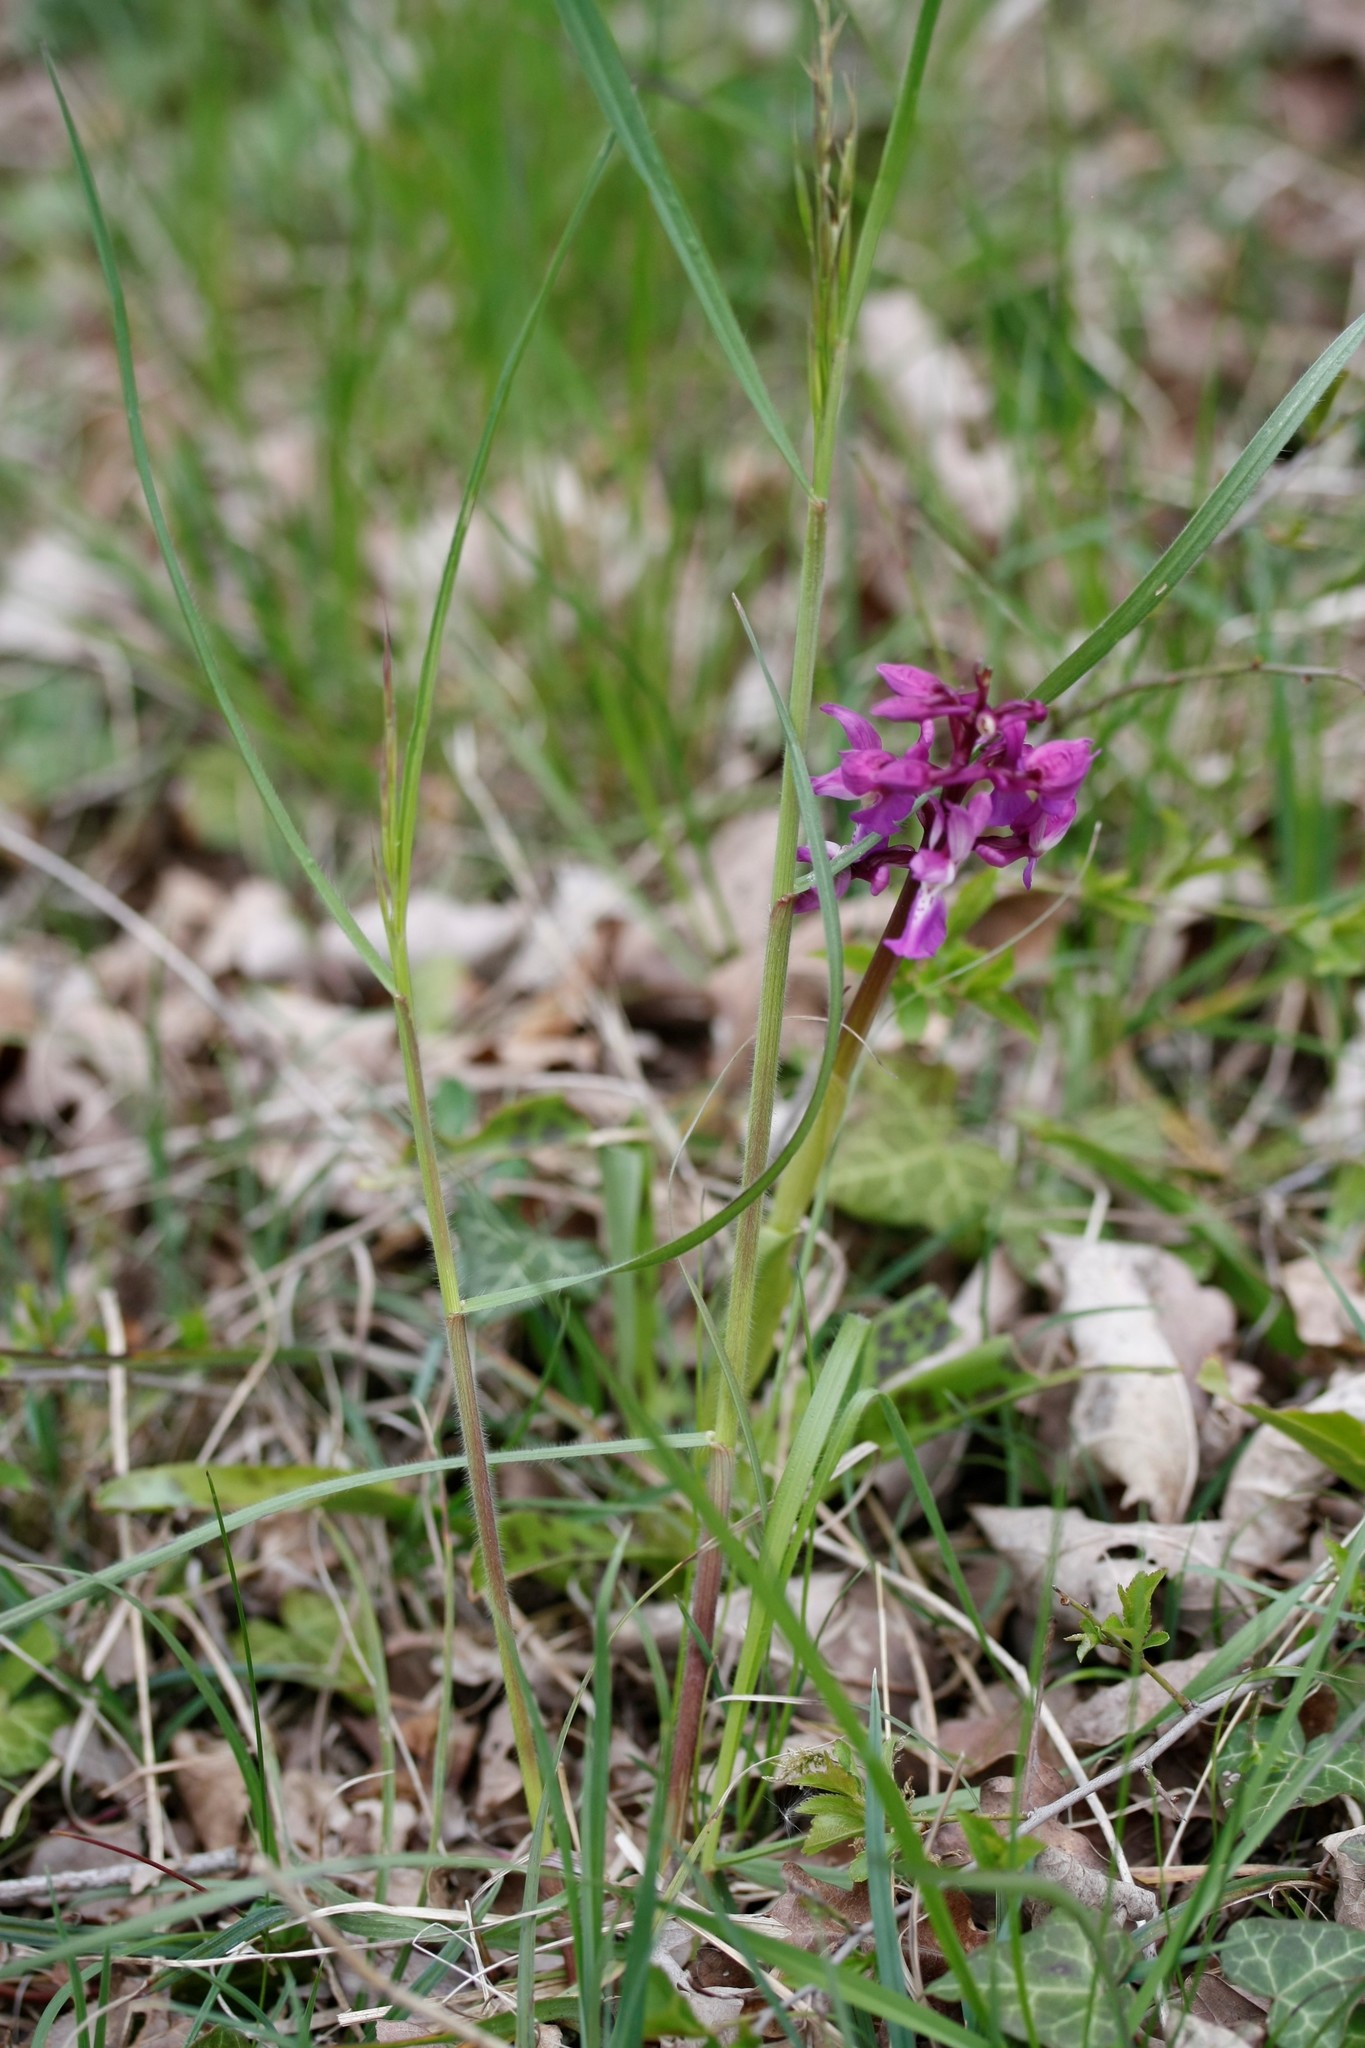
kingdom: Plantae
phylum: Tracheophyta
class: Liliopsida
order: Asparagales
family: Orchidaceae
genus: Orchis
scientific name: Orchis mascula
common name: Early-purple orchid
